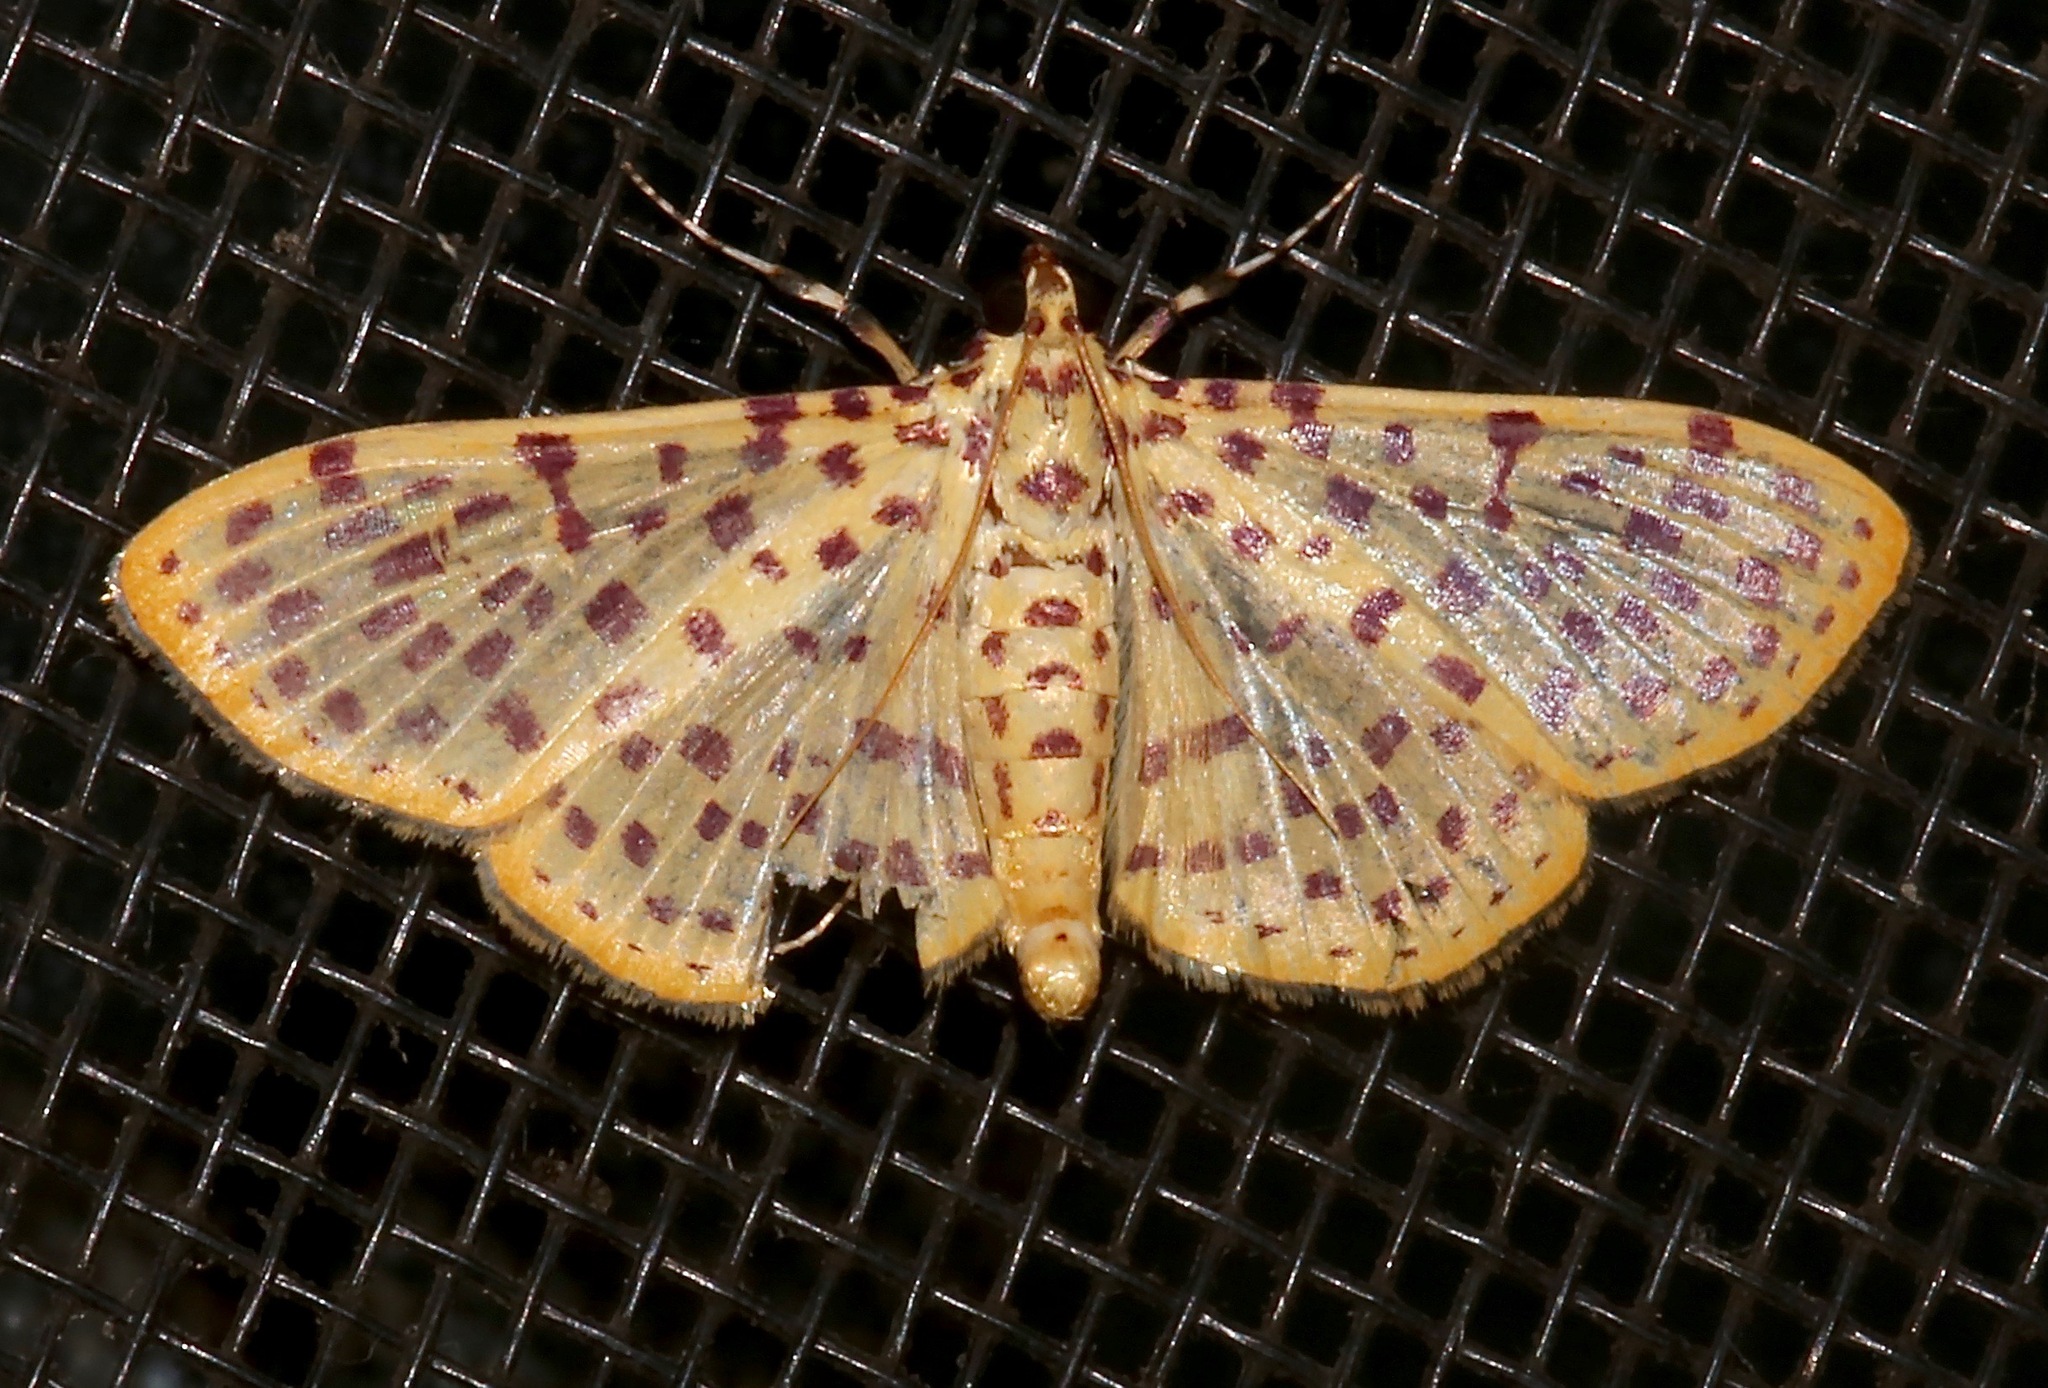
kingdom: Animalia
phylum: Arthropoda
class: Insecta
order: Lepidoptera
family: Crambidae
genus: Polygrammodes
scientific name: Polygrammodes elevata
